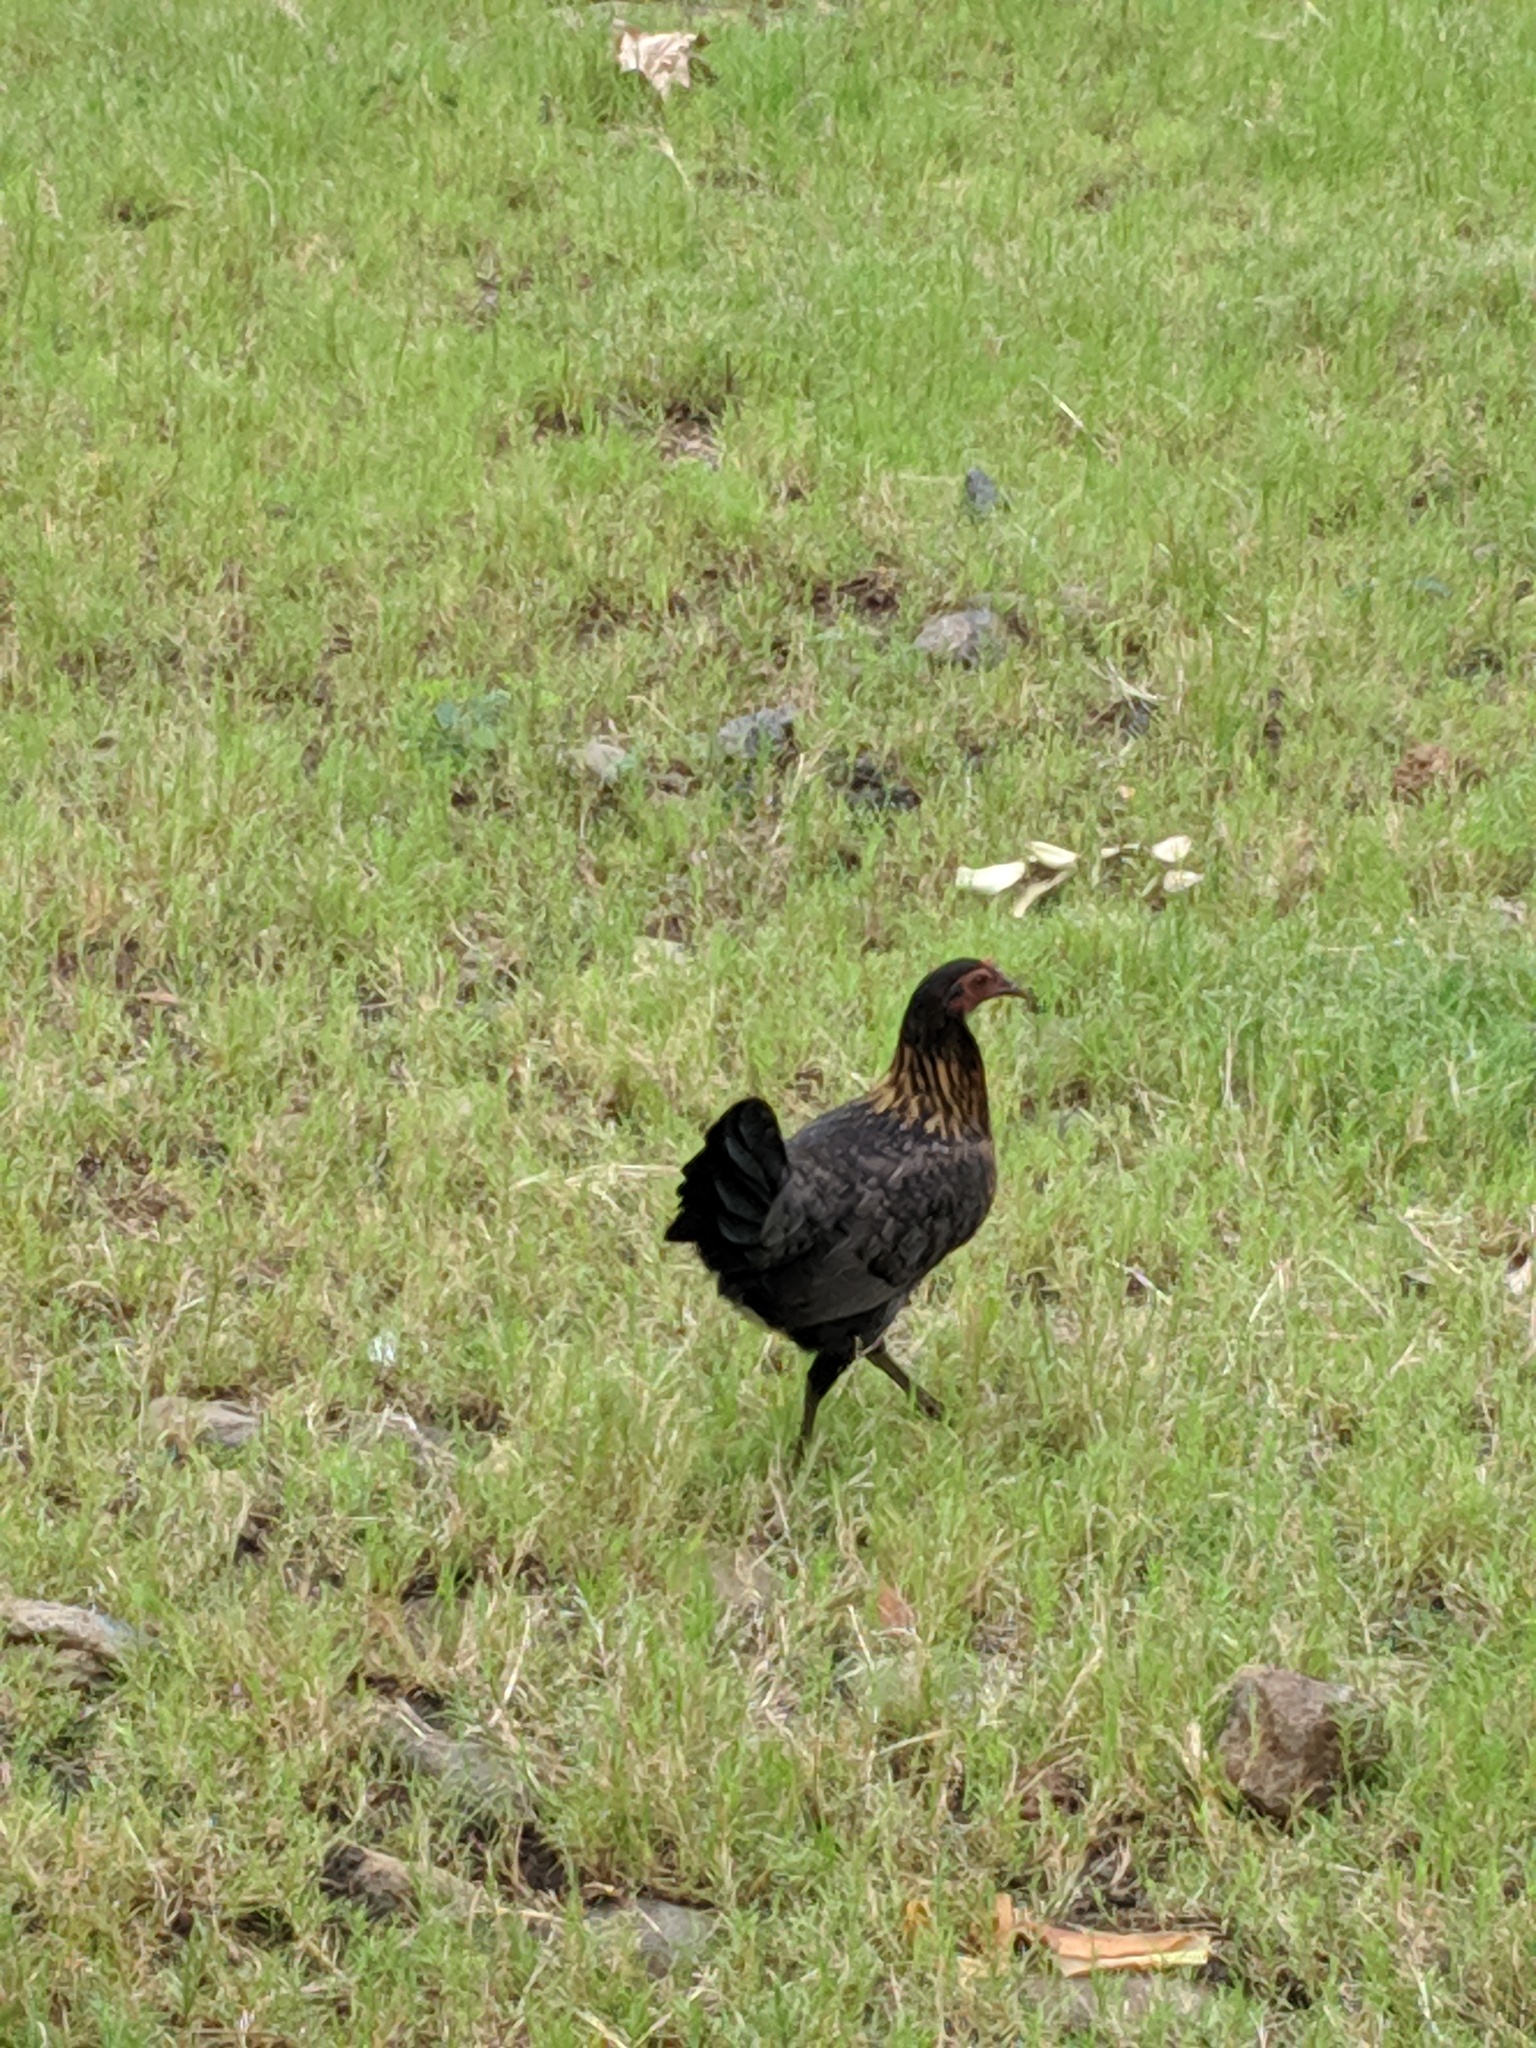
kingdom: Animalia
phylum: Chordata
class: Aves
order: Galliformes
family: Phasianidae
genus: Gallus
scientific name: Gallus gallus
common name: Red junglefowl
